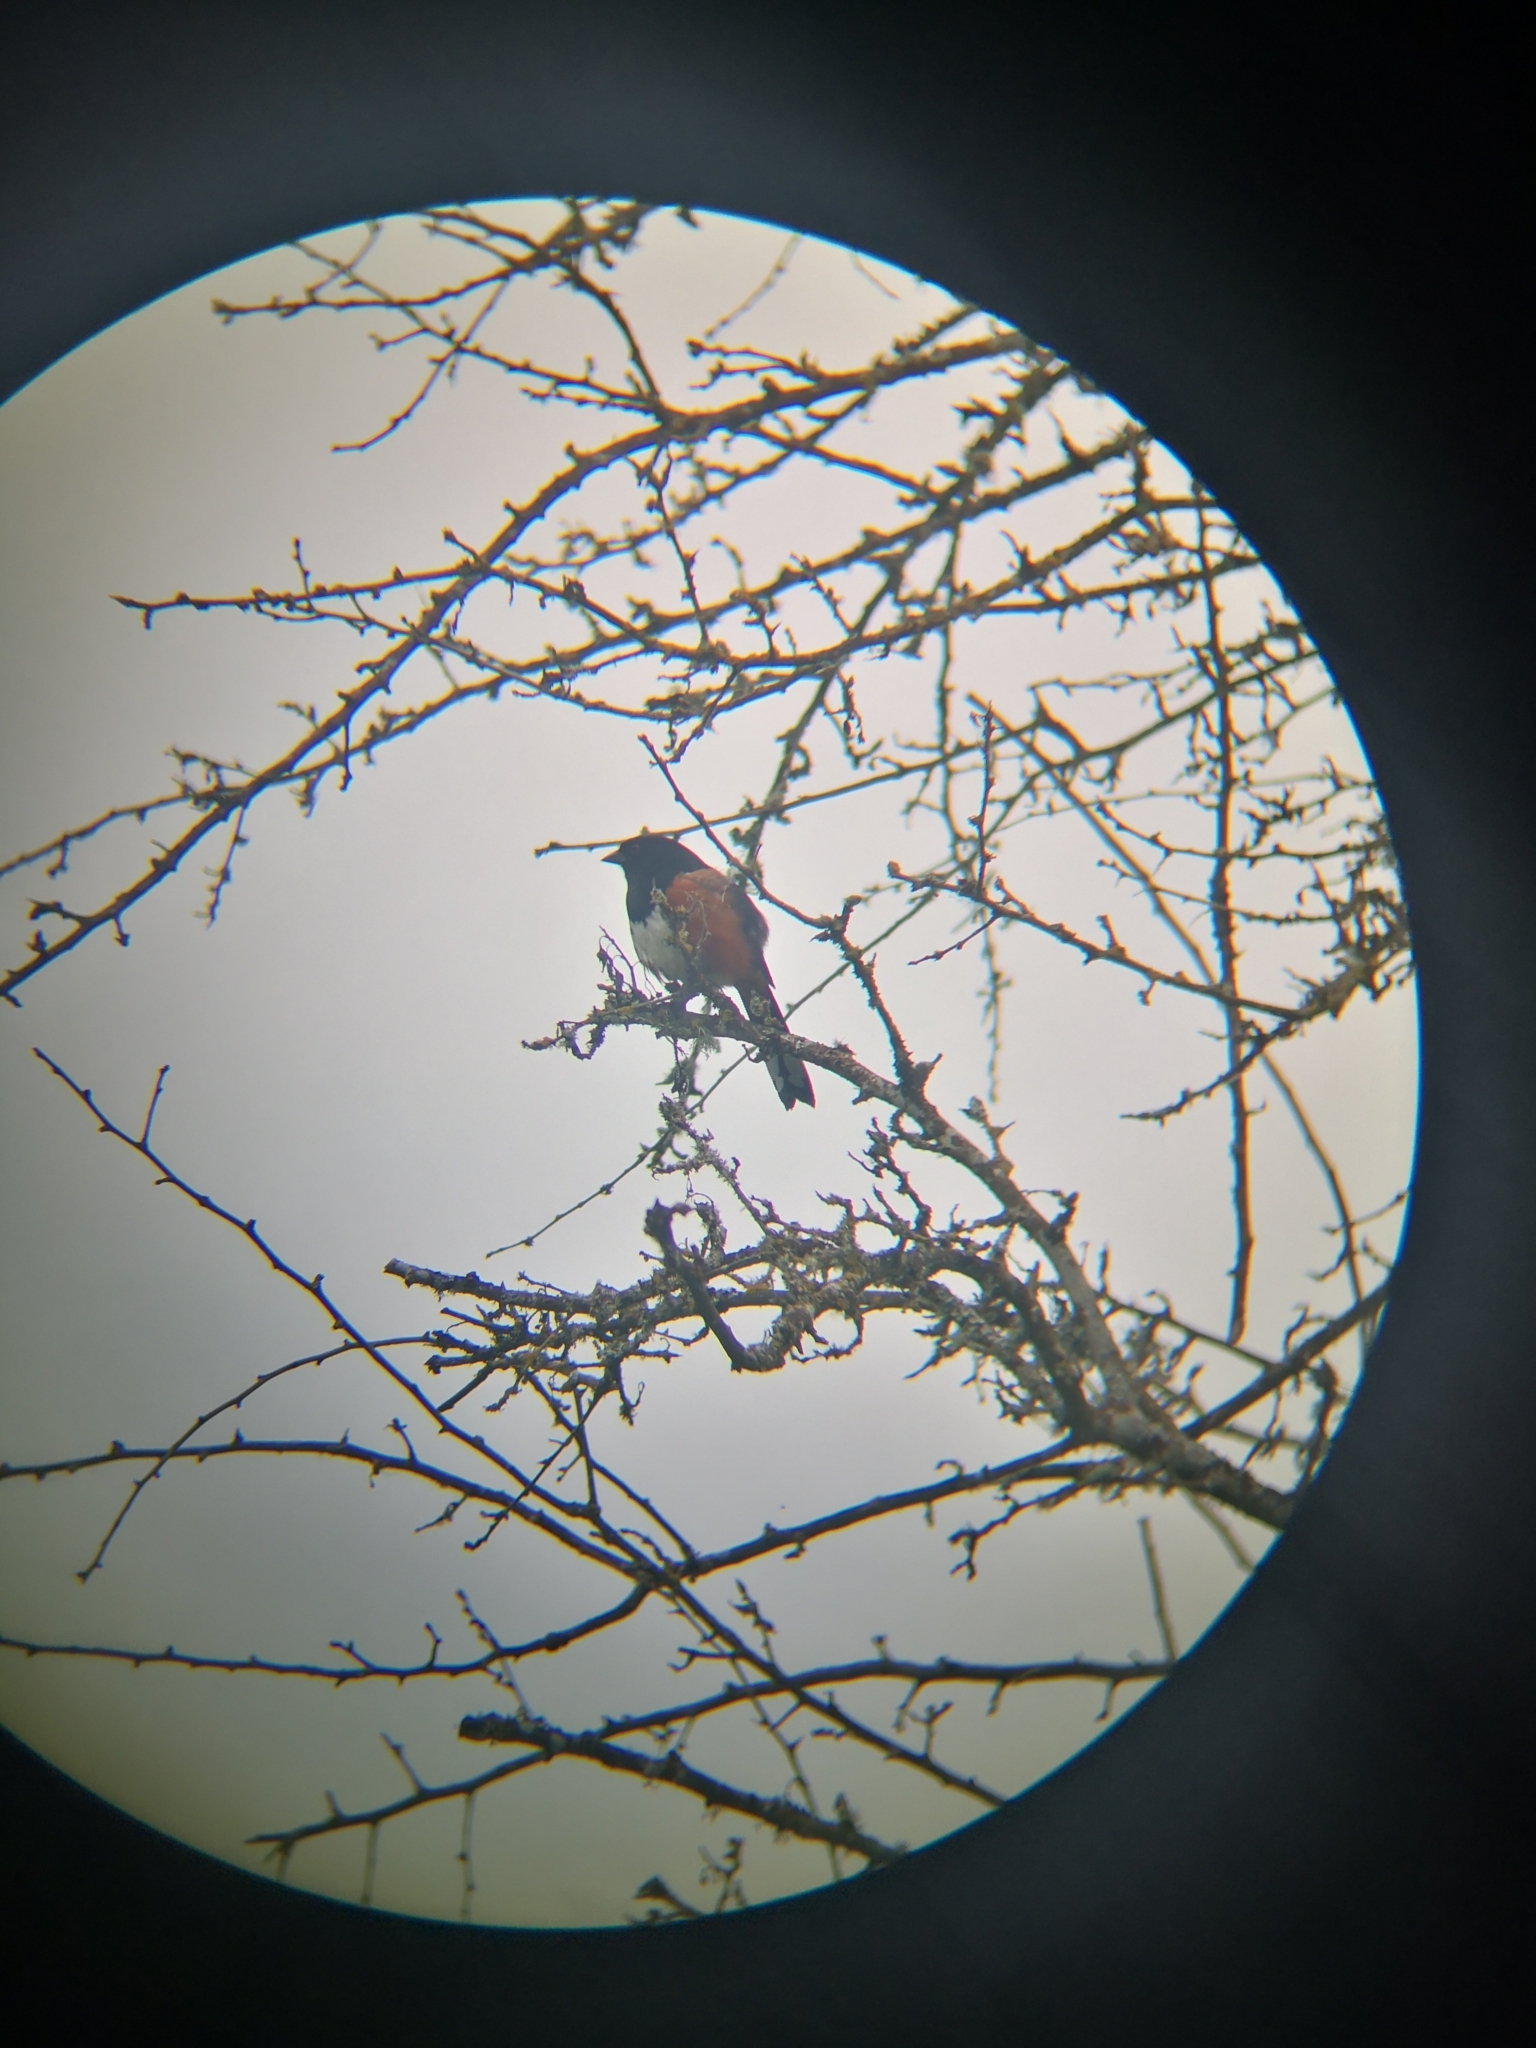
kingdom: Animalia
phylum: Chordata
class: Aves
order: Passeriformes
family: Passerellidae
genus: Pipilo
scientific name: Pipilo maculatus
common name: Spotted towhee
